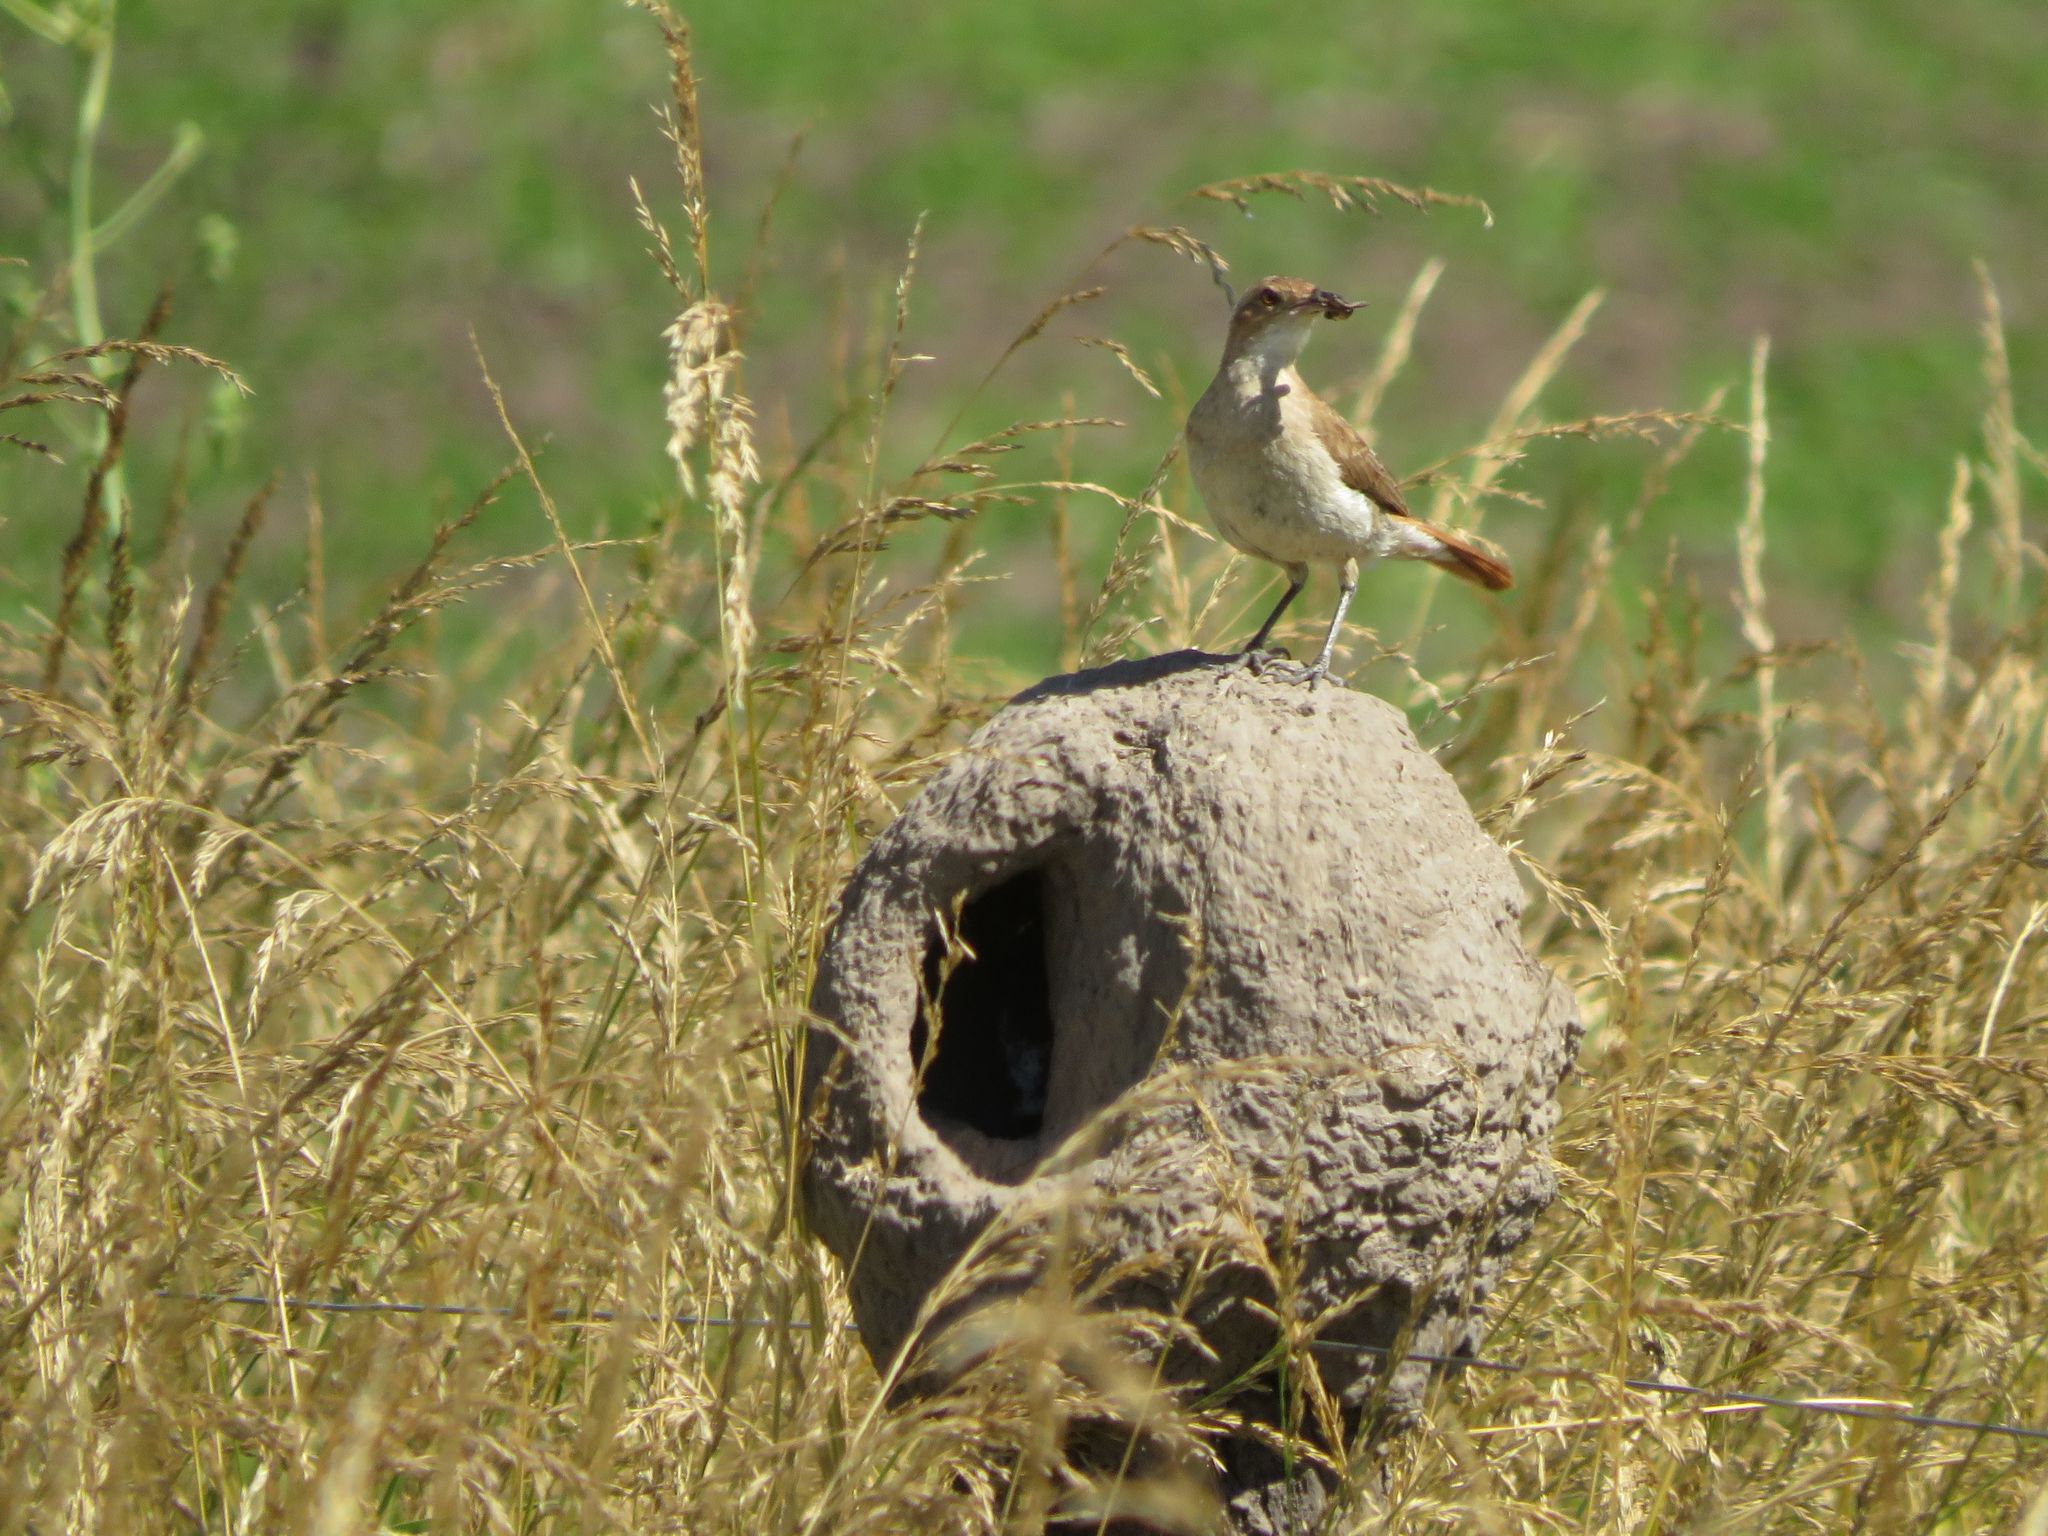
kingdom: Animalia
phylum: Chordata
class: Aves
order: Passeriformes
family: Furnariidae
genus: Furnarius
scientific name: Furnarius rufus
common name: Rufous hornero
